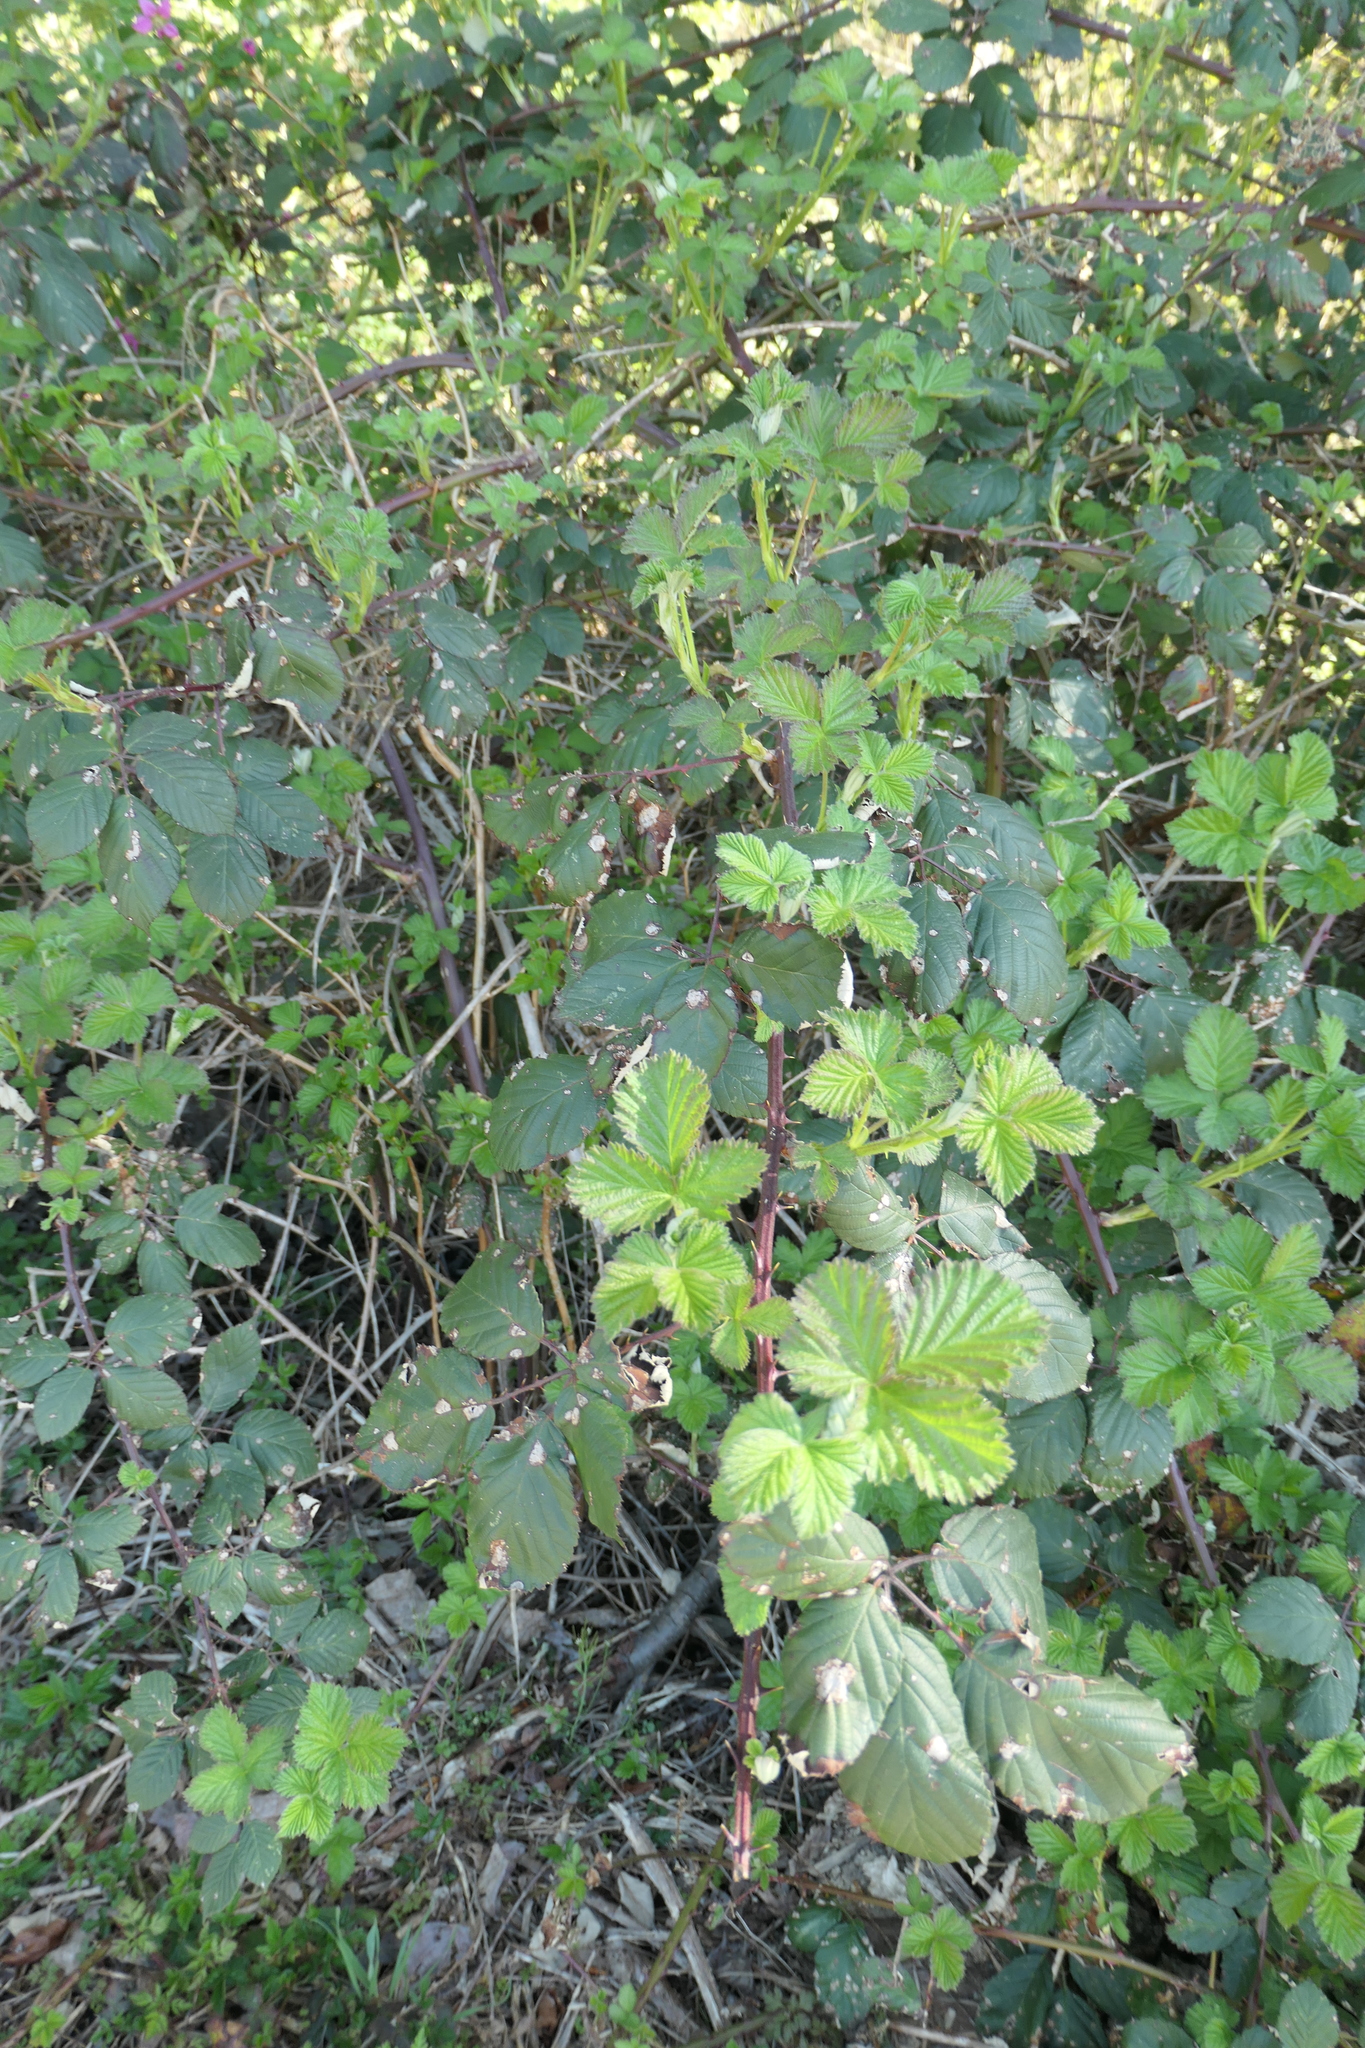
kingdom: Plantae
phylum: Tracheophyta
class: Magnoliopsida
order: Rosales
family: Rosaceae
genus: Rubus
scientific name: Rubus bifrons
